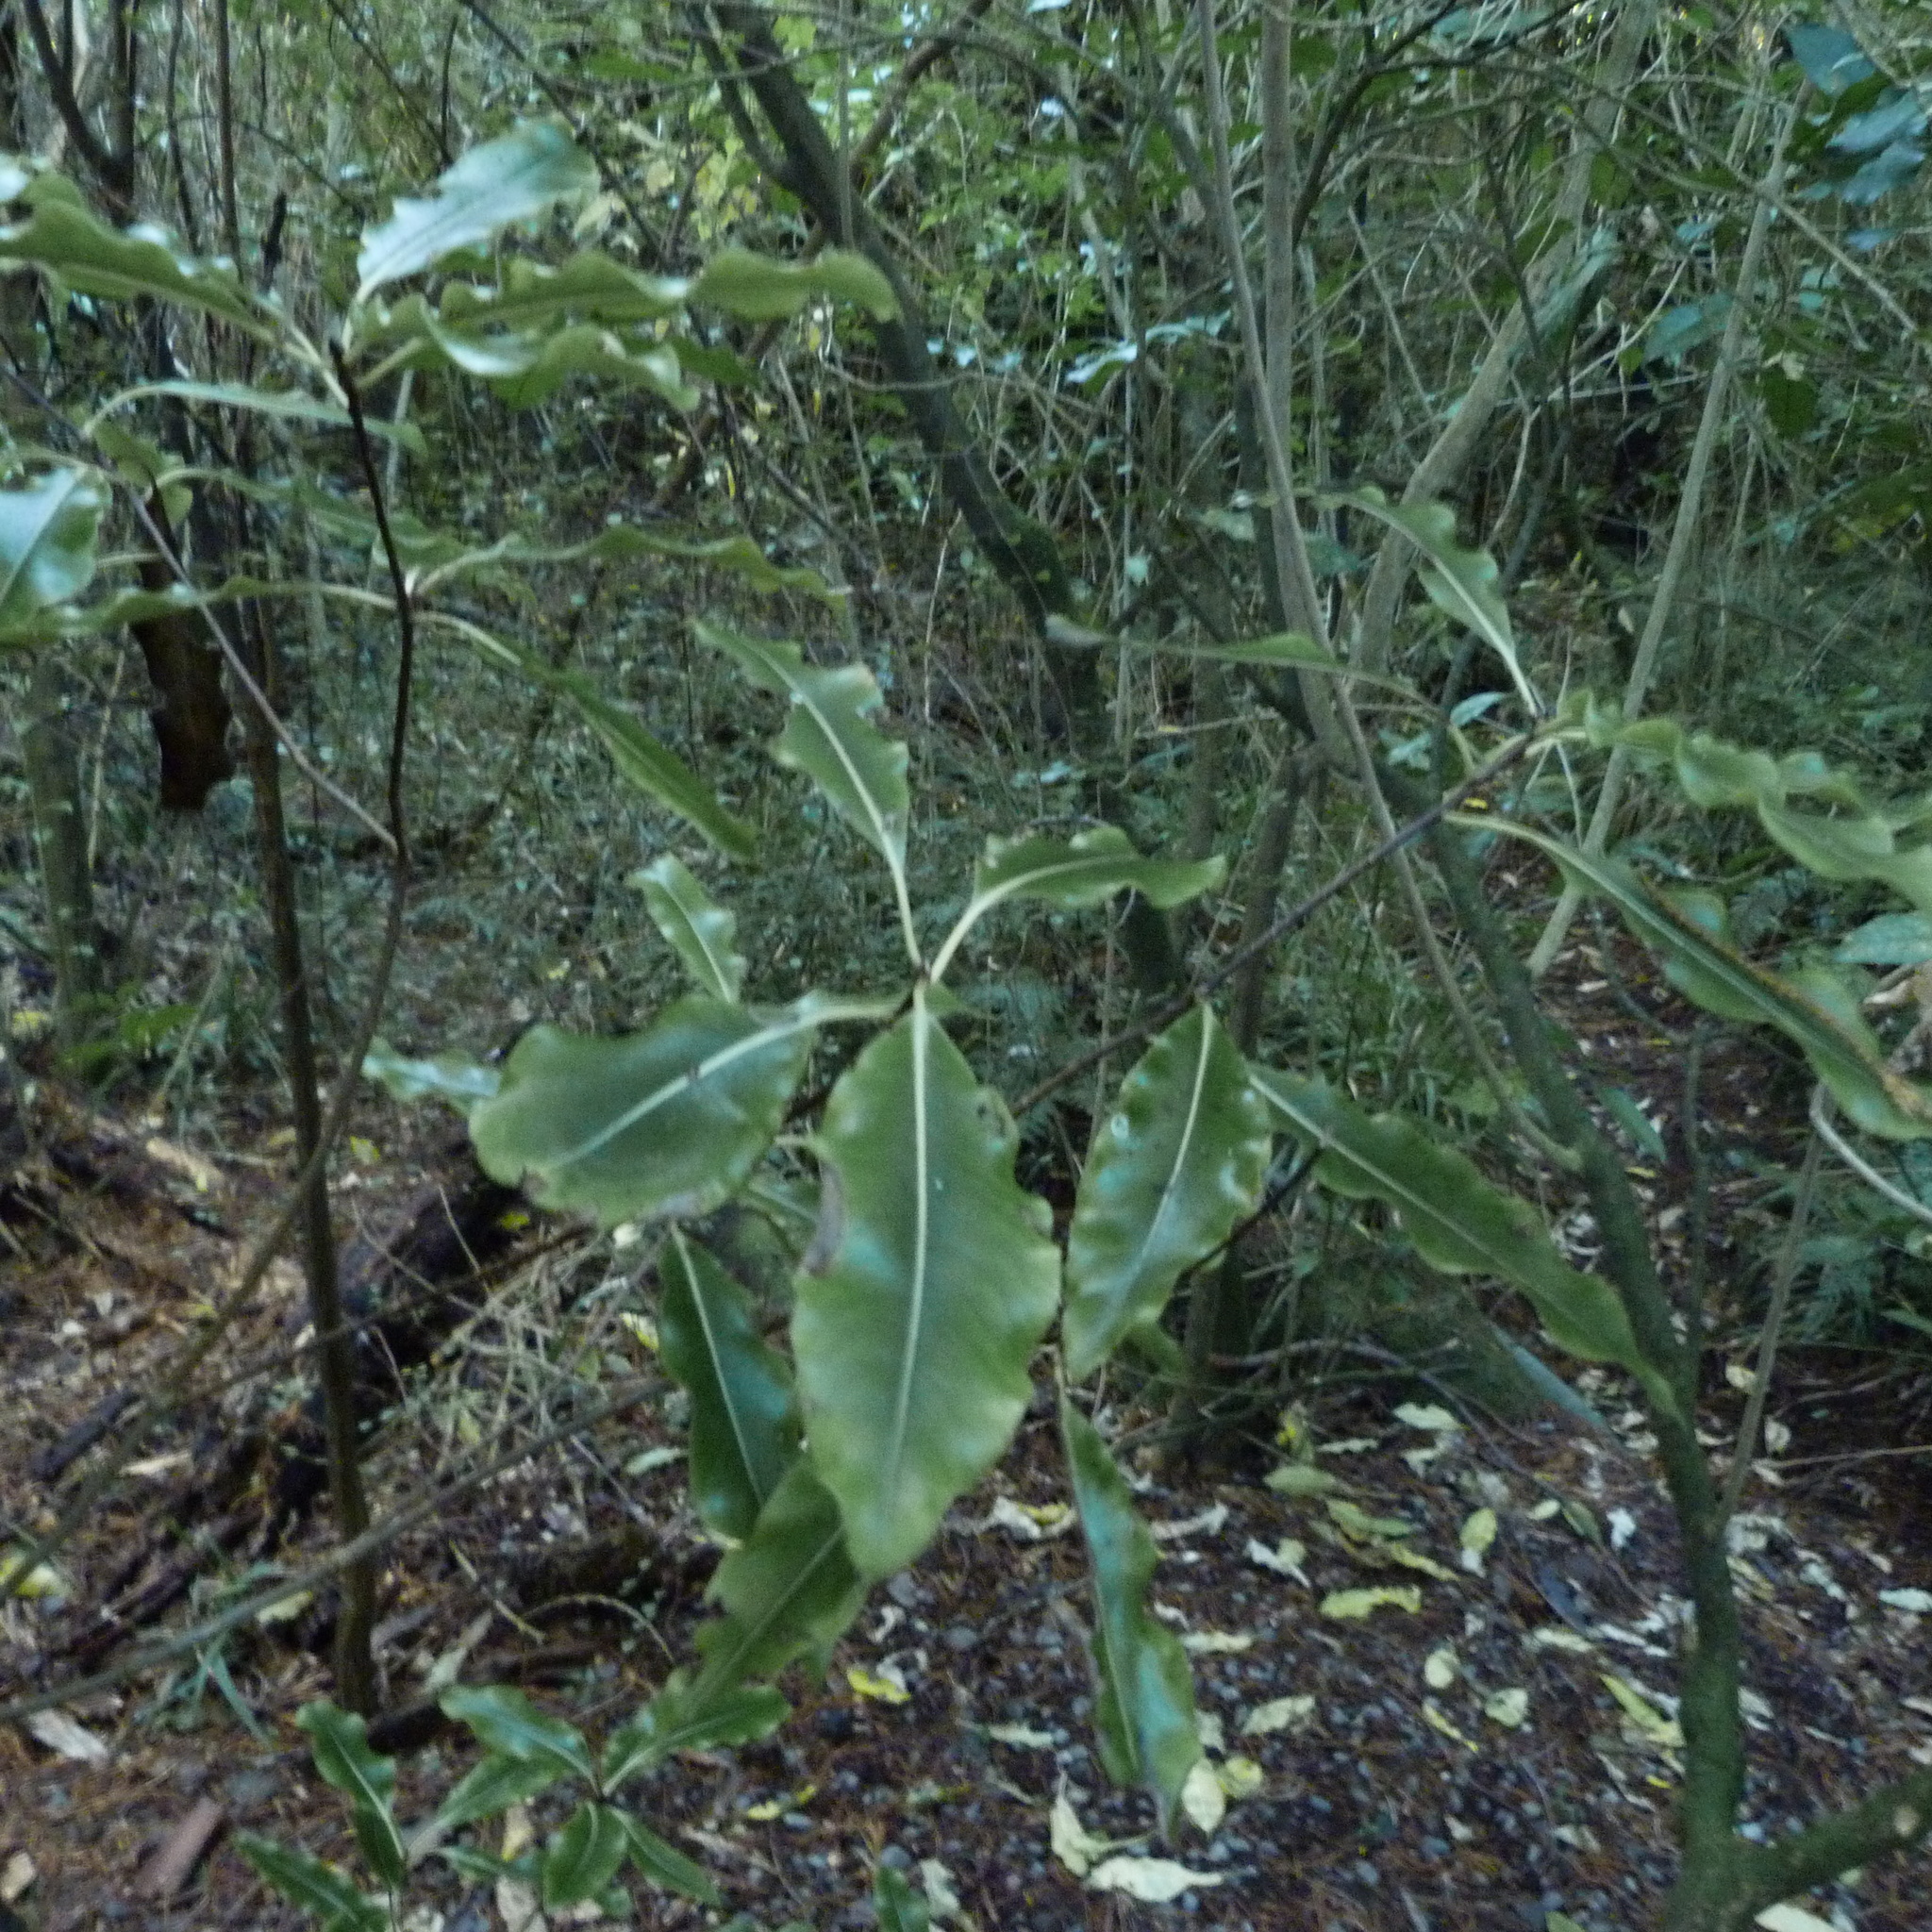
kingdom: Plantae
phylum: Tracheophyta
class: Magnoliopsida
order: Apiales
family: Pittosporaceae
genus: Pittosporum
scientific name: Pittosporum eugenioides
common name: Lemonwood
